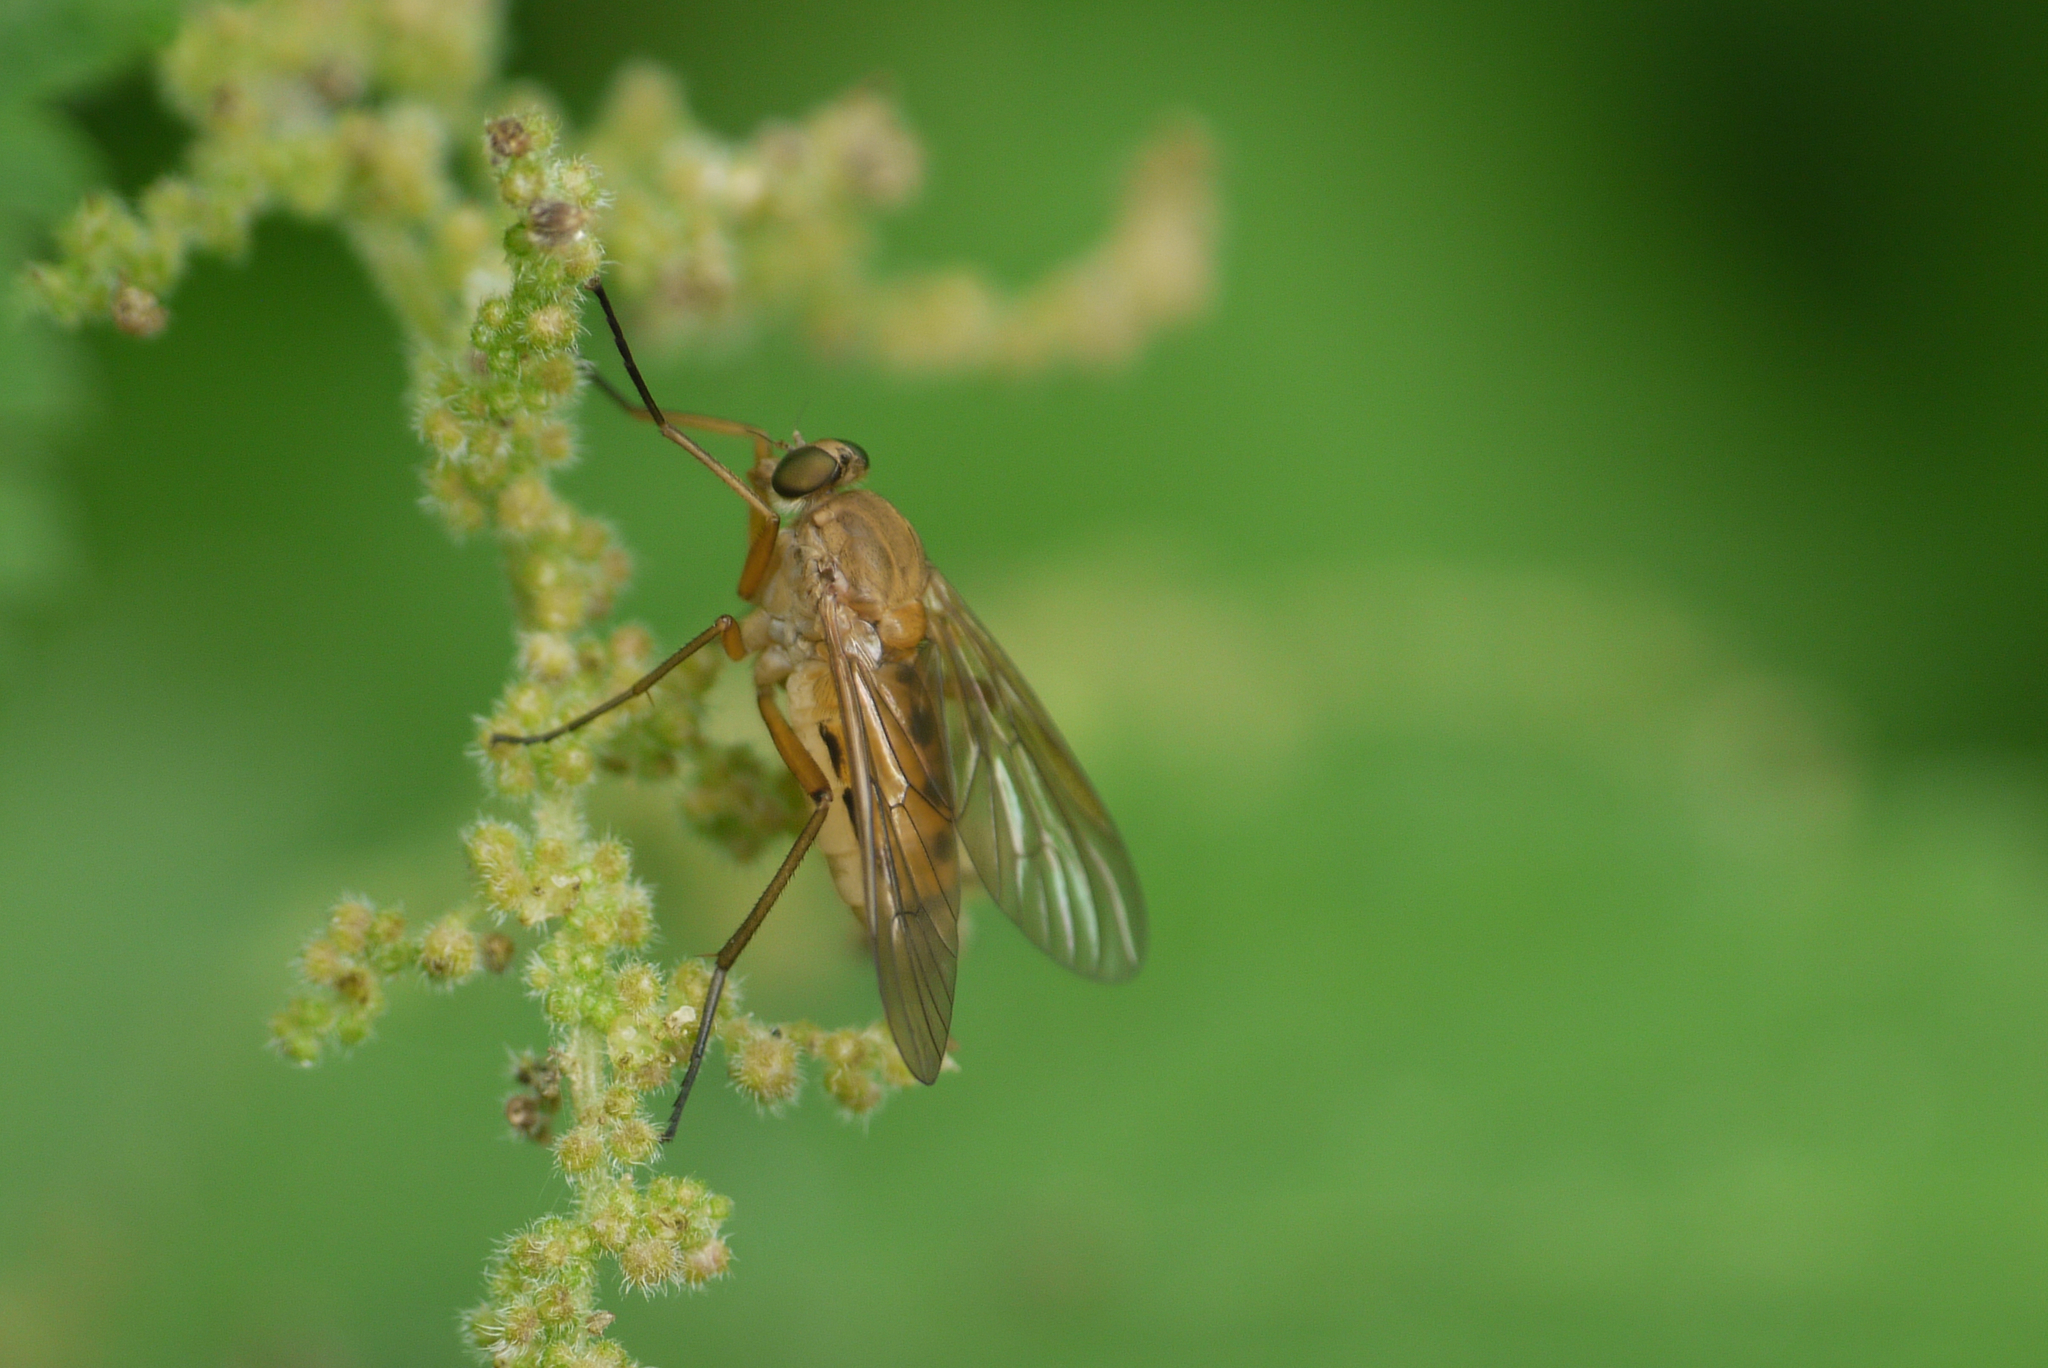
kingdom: Animalia
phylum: Arthropoda
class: Insecta
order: Diptera
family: Rhagionidae
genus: Rhagio
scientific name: Rhagio tringaria
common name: Marsh snipefly
